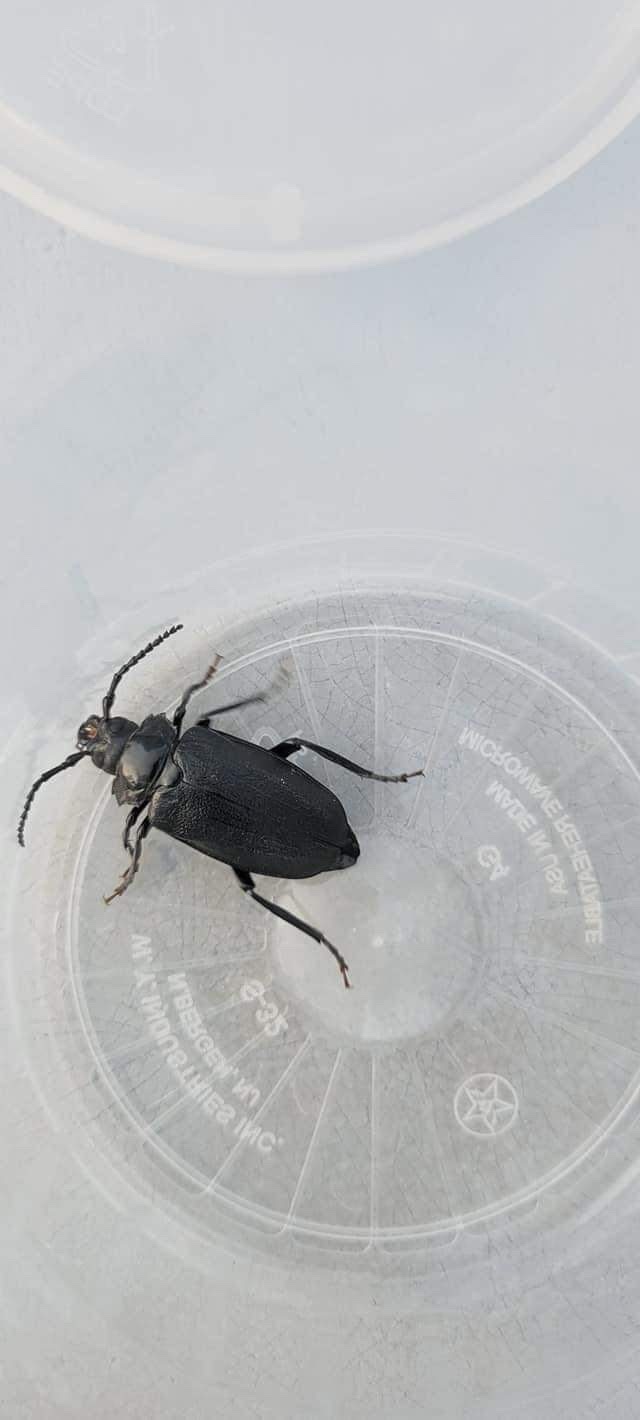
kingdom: Animalia
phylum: Arthropoda
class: Insecta
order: Coleoptera
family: Cerambycidae
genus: Prionus
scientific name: Prionus laticollis
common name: Broad necked prionus
